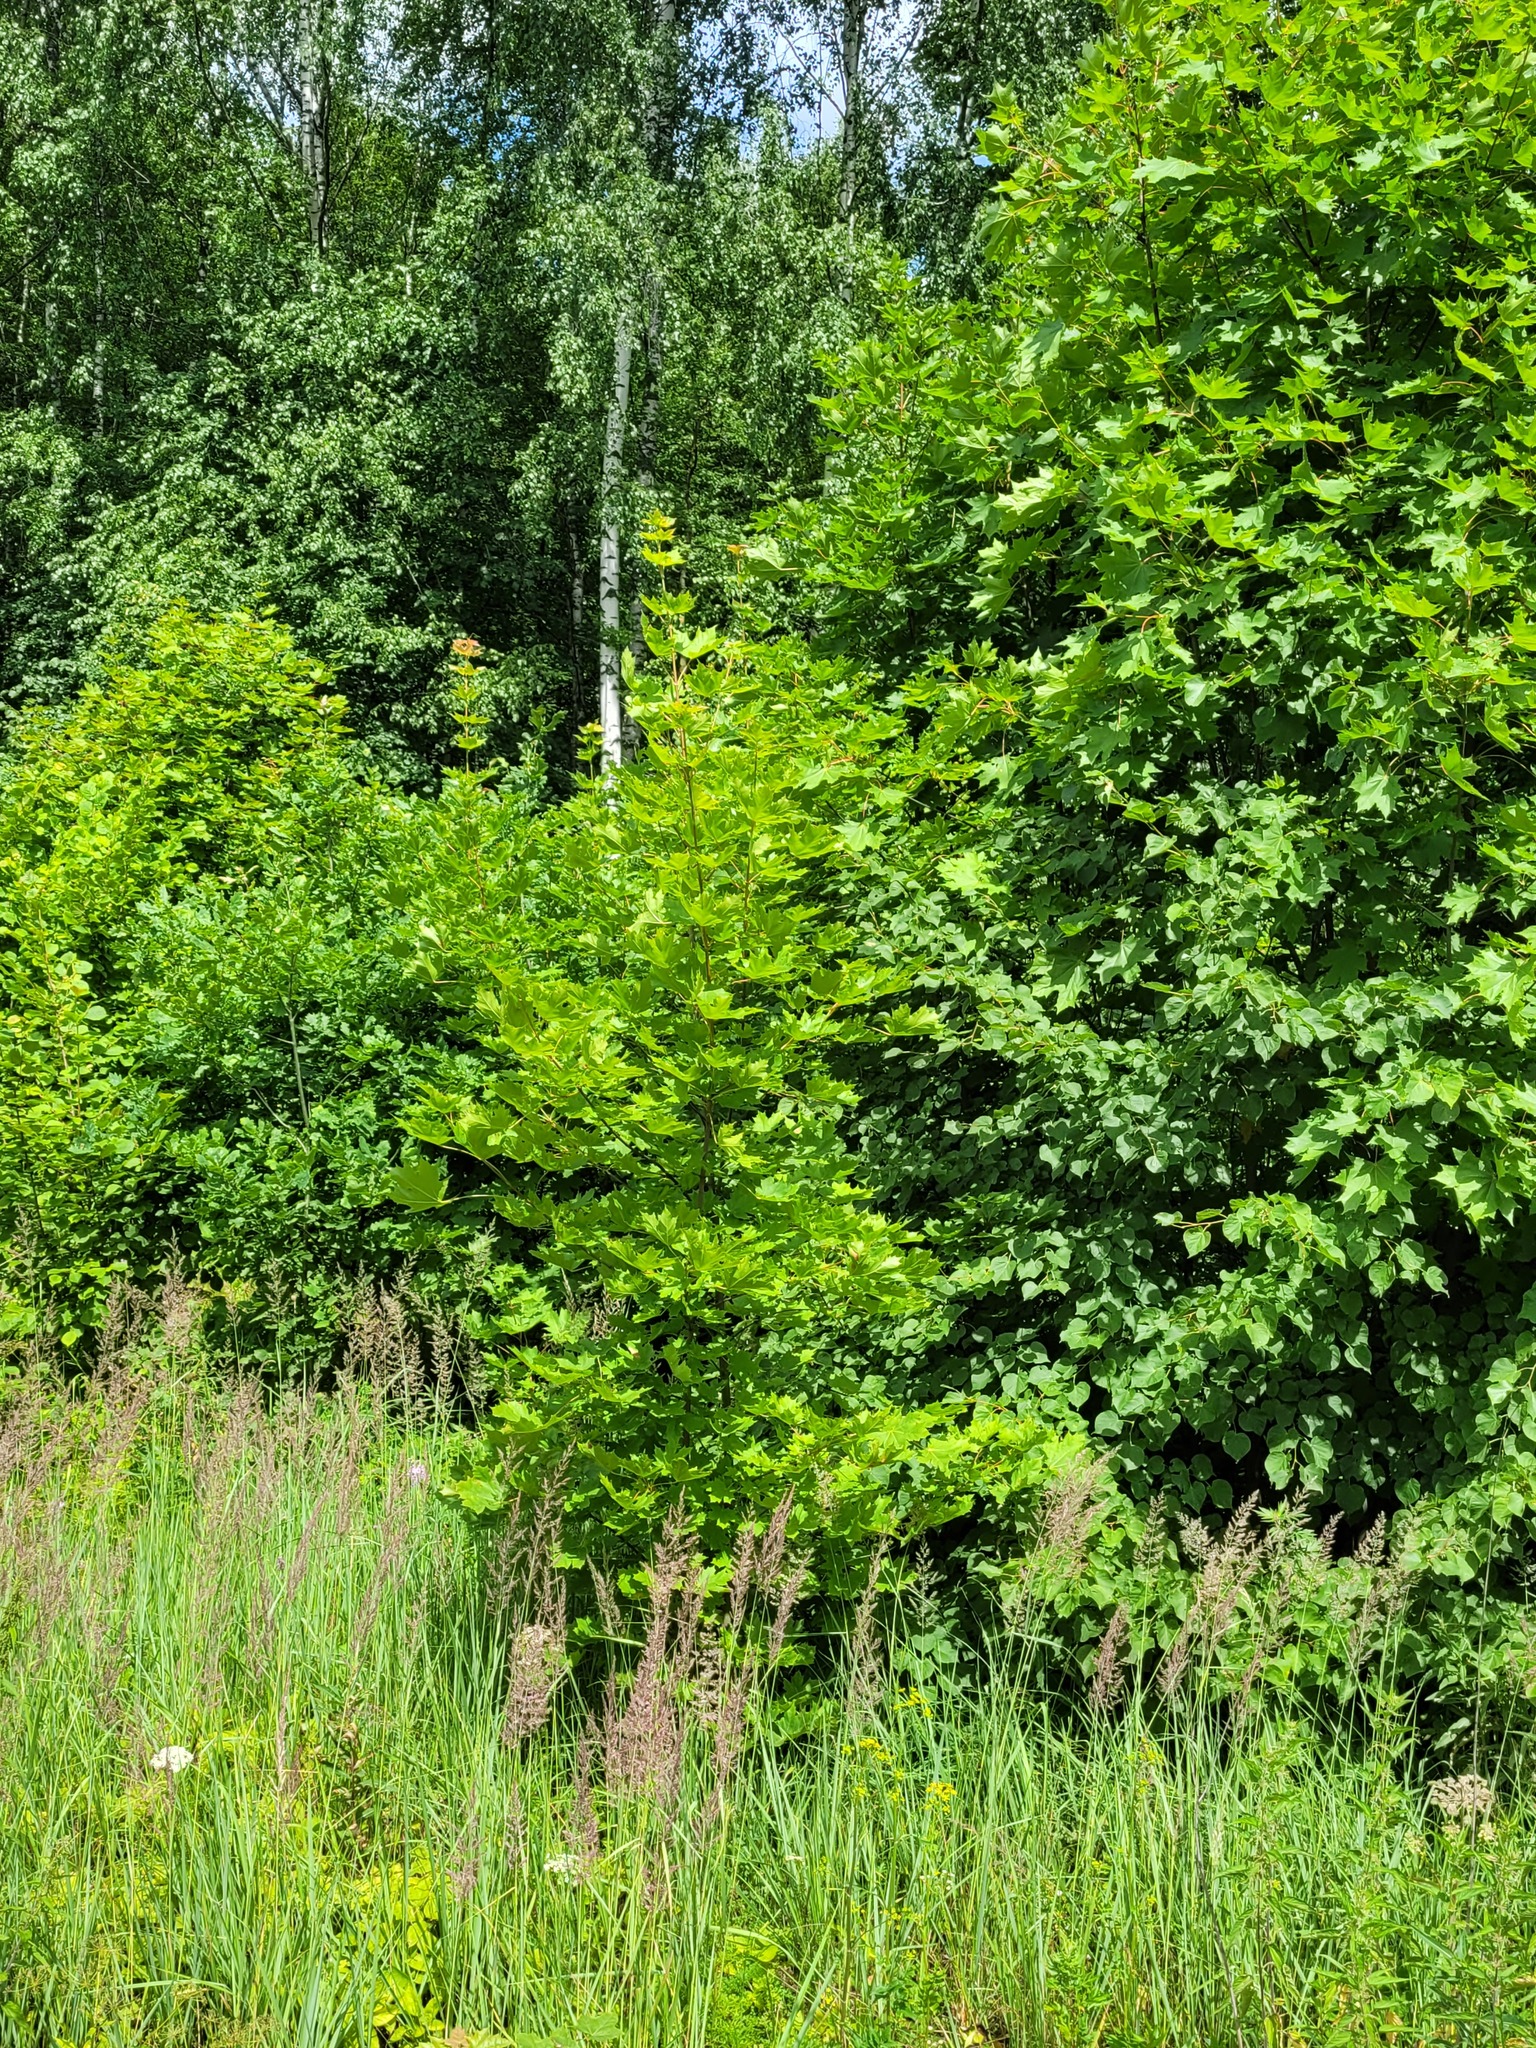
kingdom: Plantae
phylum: Tracheophyta
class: Magnoliopsida
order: Sapindales
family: Sapindaceae
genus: Acer
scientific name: Acer platanoides
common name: Norway maple
